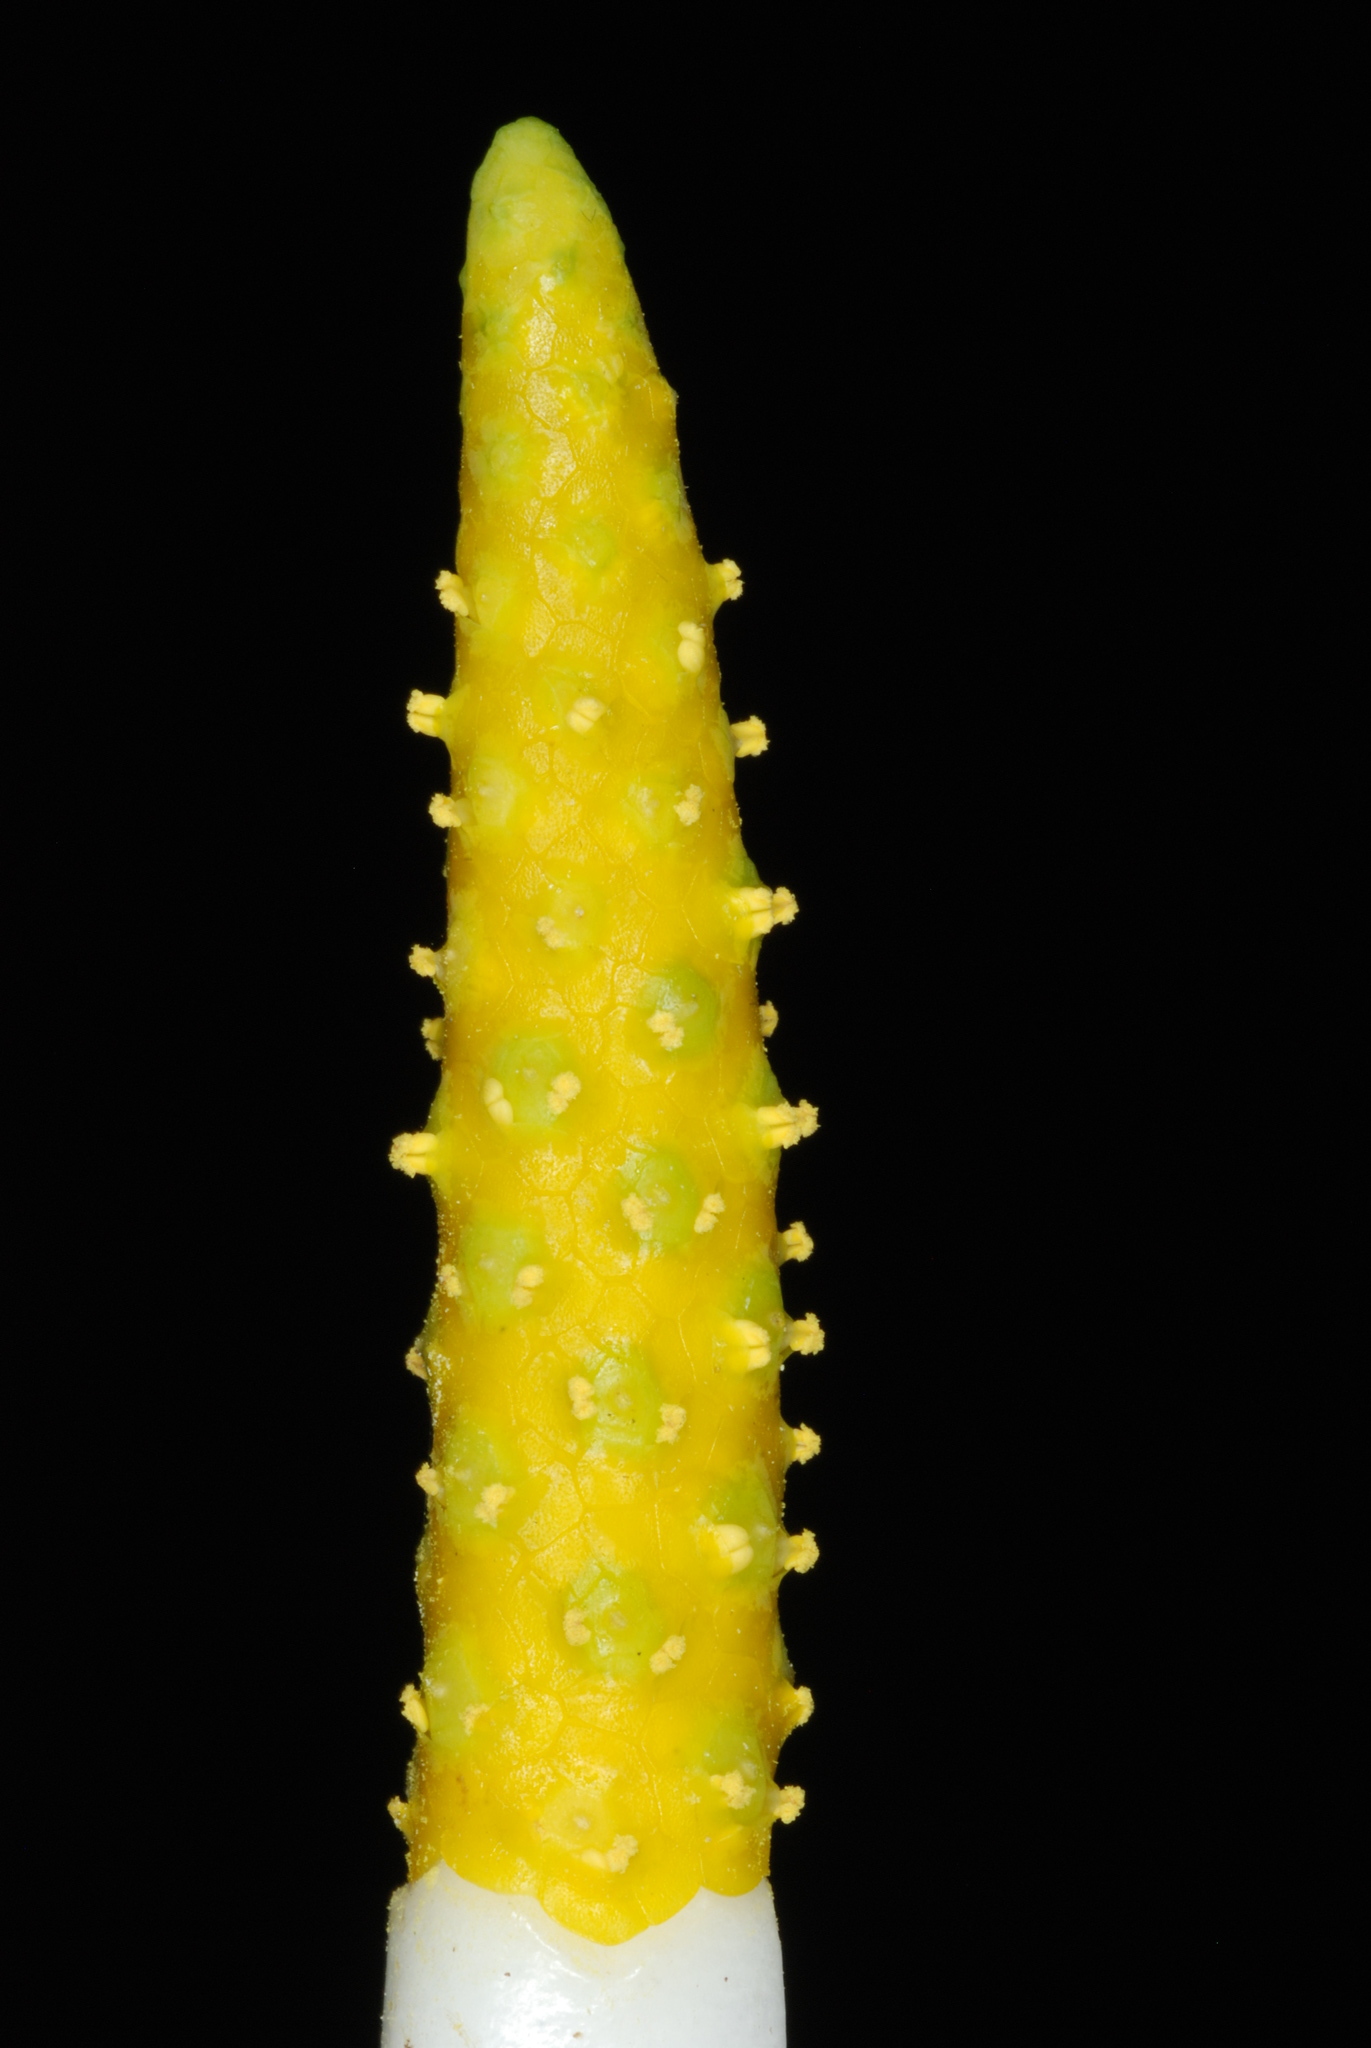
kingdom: Plantae
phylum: Tracheophyta
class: Liliopsida
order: Alismatales
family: Araceae
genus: Orontium
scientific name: Orontium aquaticum
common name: Golden-club
